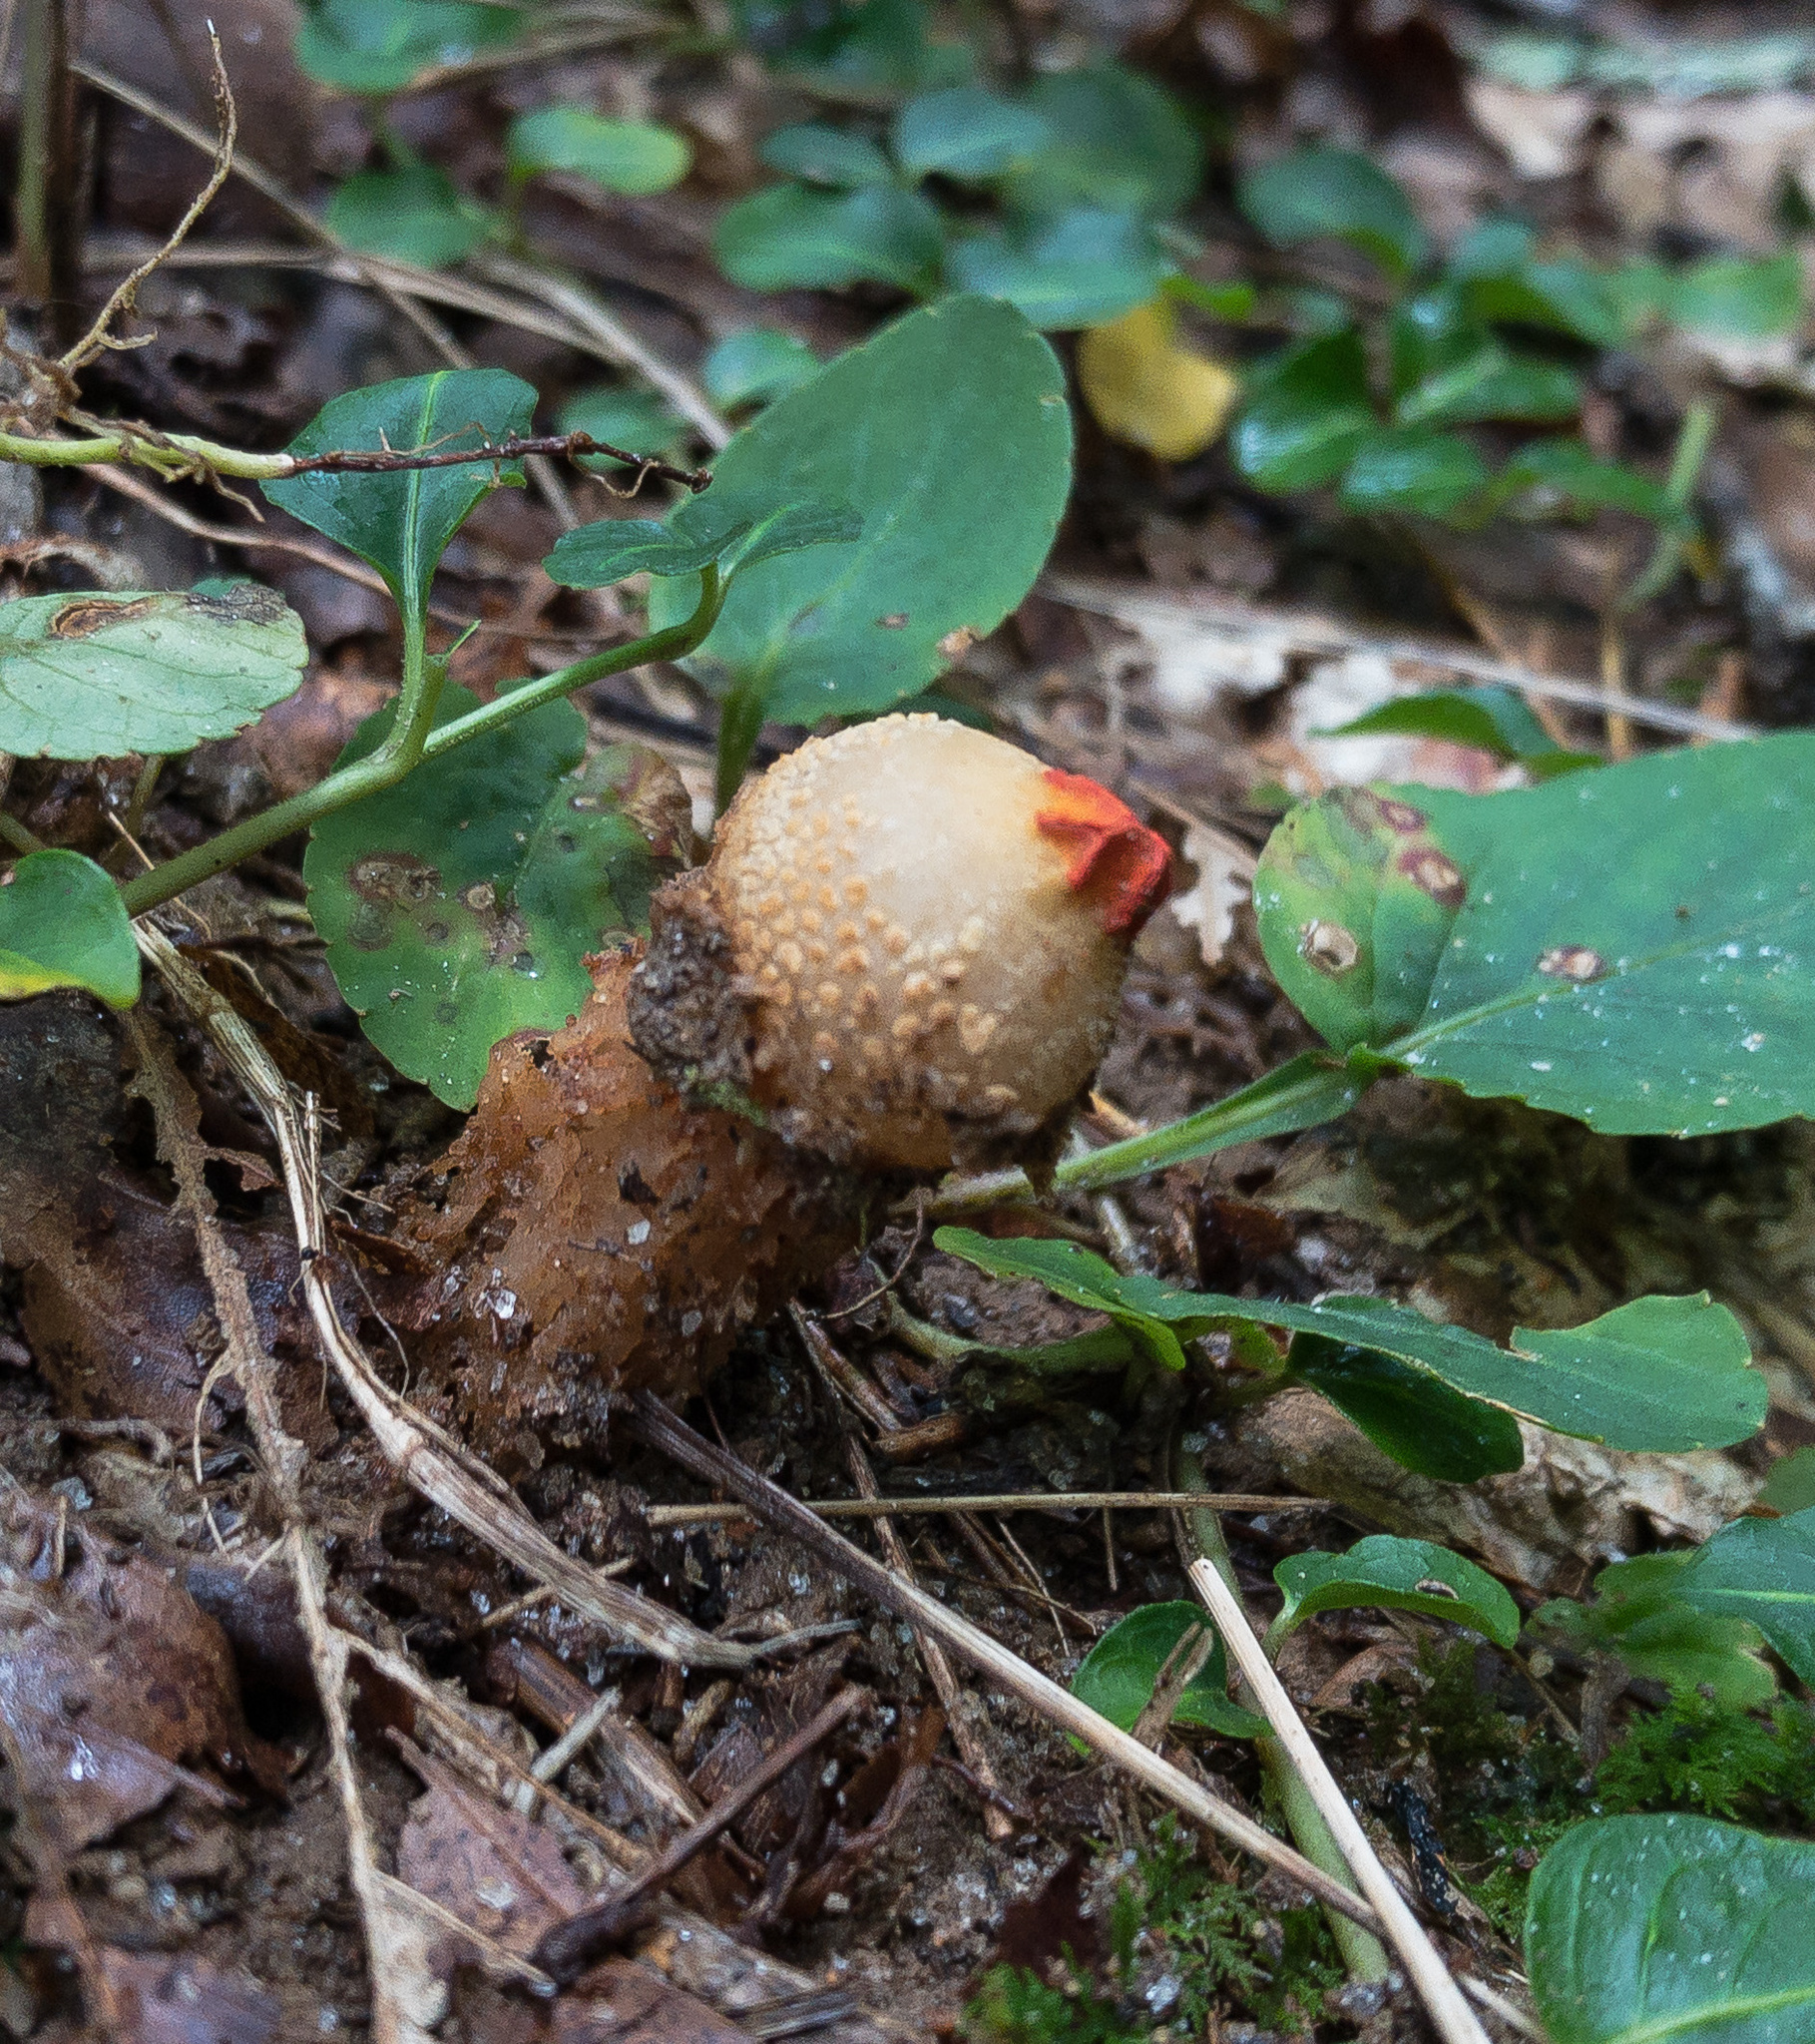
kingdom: Fungi
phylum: Basidiomycota
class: Agaricomycetes
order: Boletales
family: Calostomataceae
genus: Calostoma
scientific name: Calostoma ravenelii
